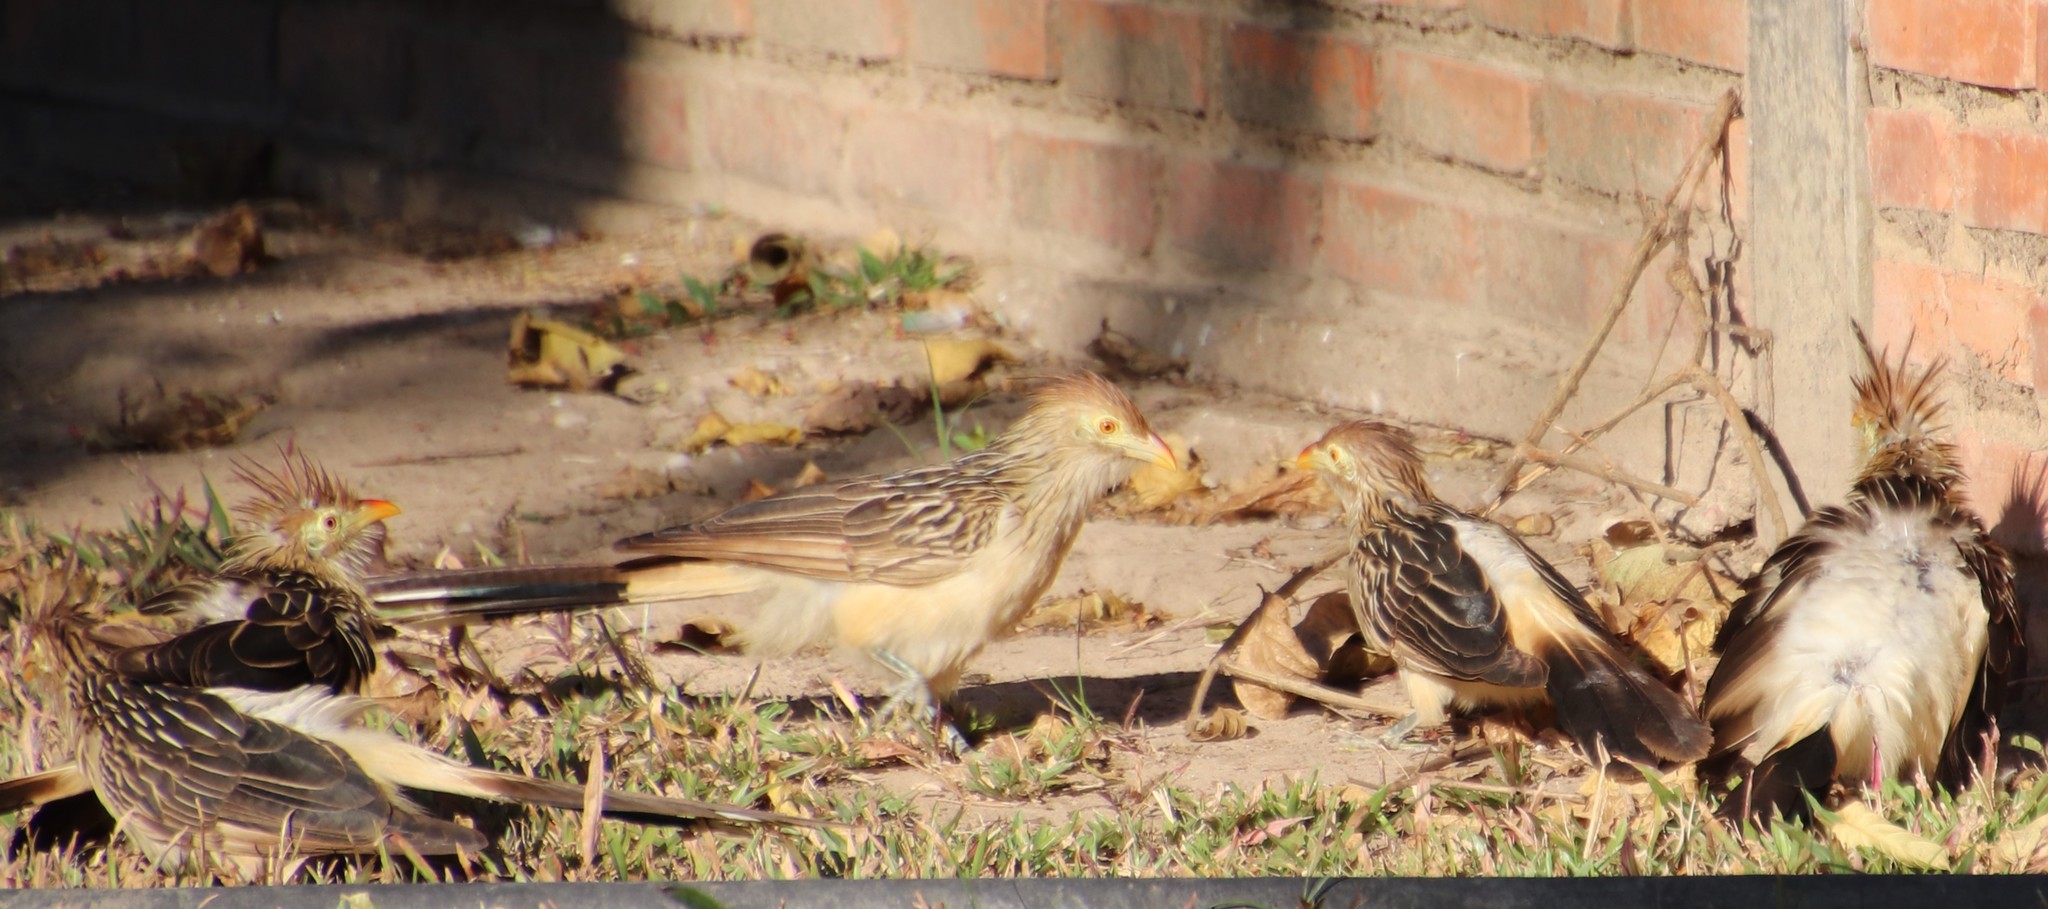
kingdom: Animalia
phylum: Chordata
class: Aves
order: Cuculiformes
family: Cuculidae
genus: Guira
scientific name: Guira guira
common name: Guira cuckoo
